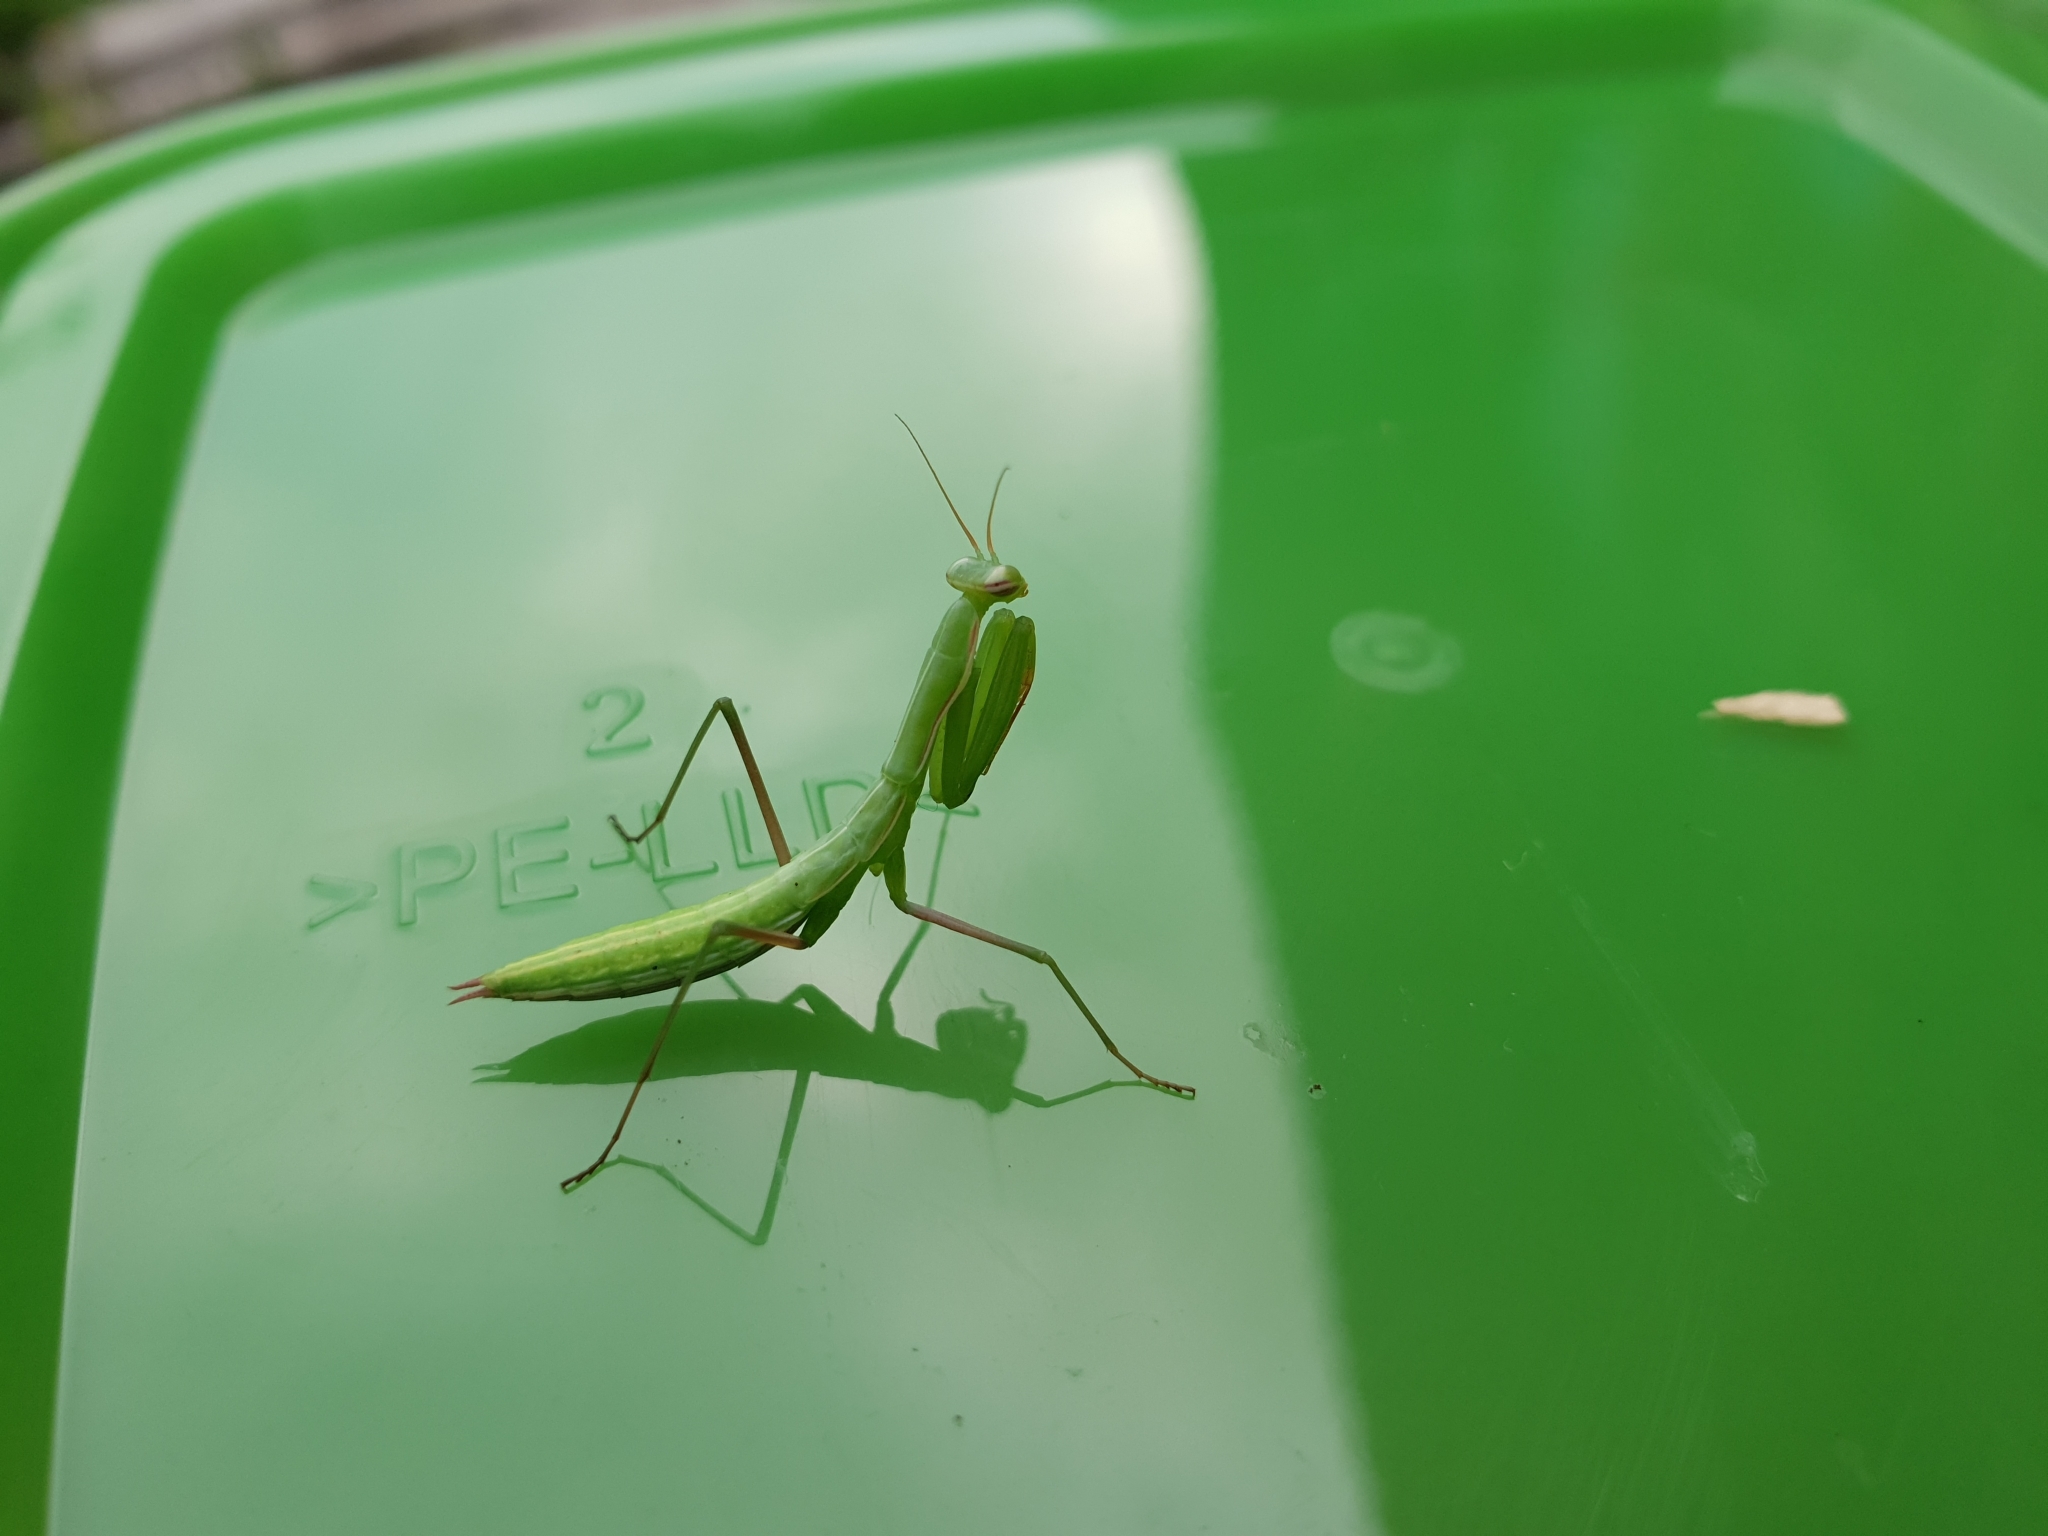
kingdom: Animalia
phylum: Arthropoda
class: Insecta
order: Mantodea
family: Mantidae
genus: Mantis
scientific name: Mantis religiosa
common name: Praying mantis
